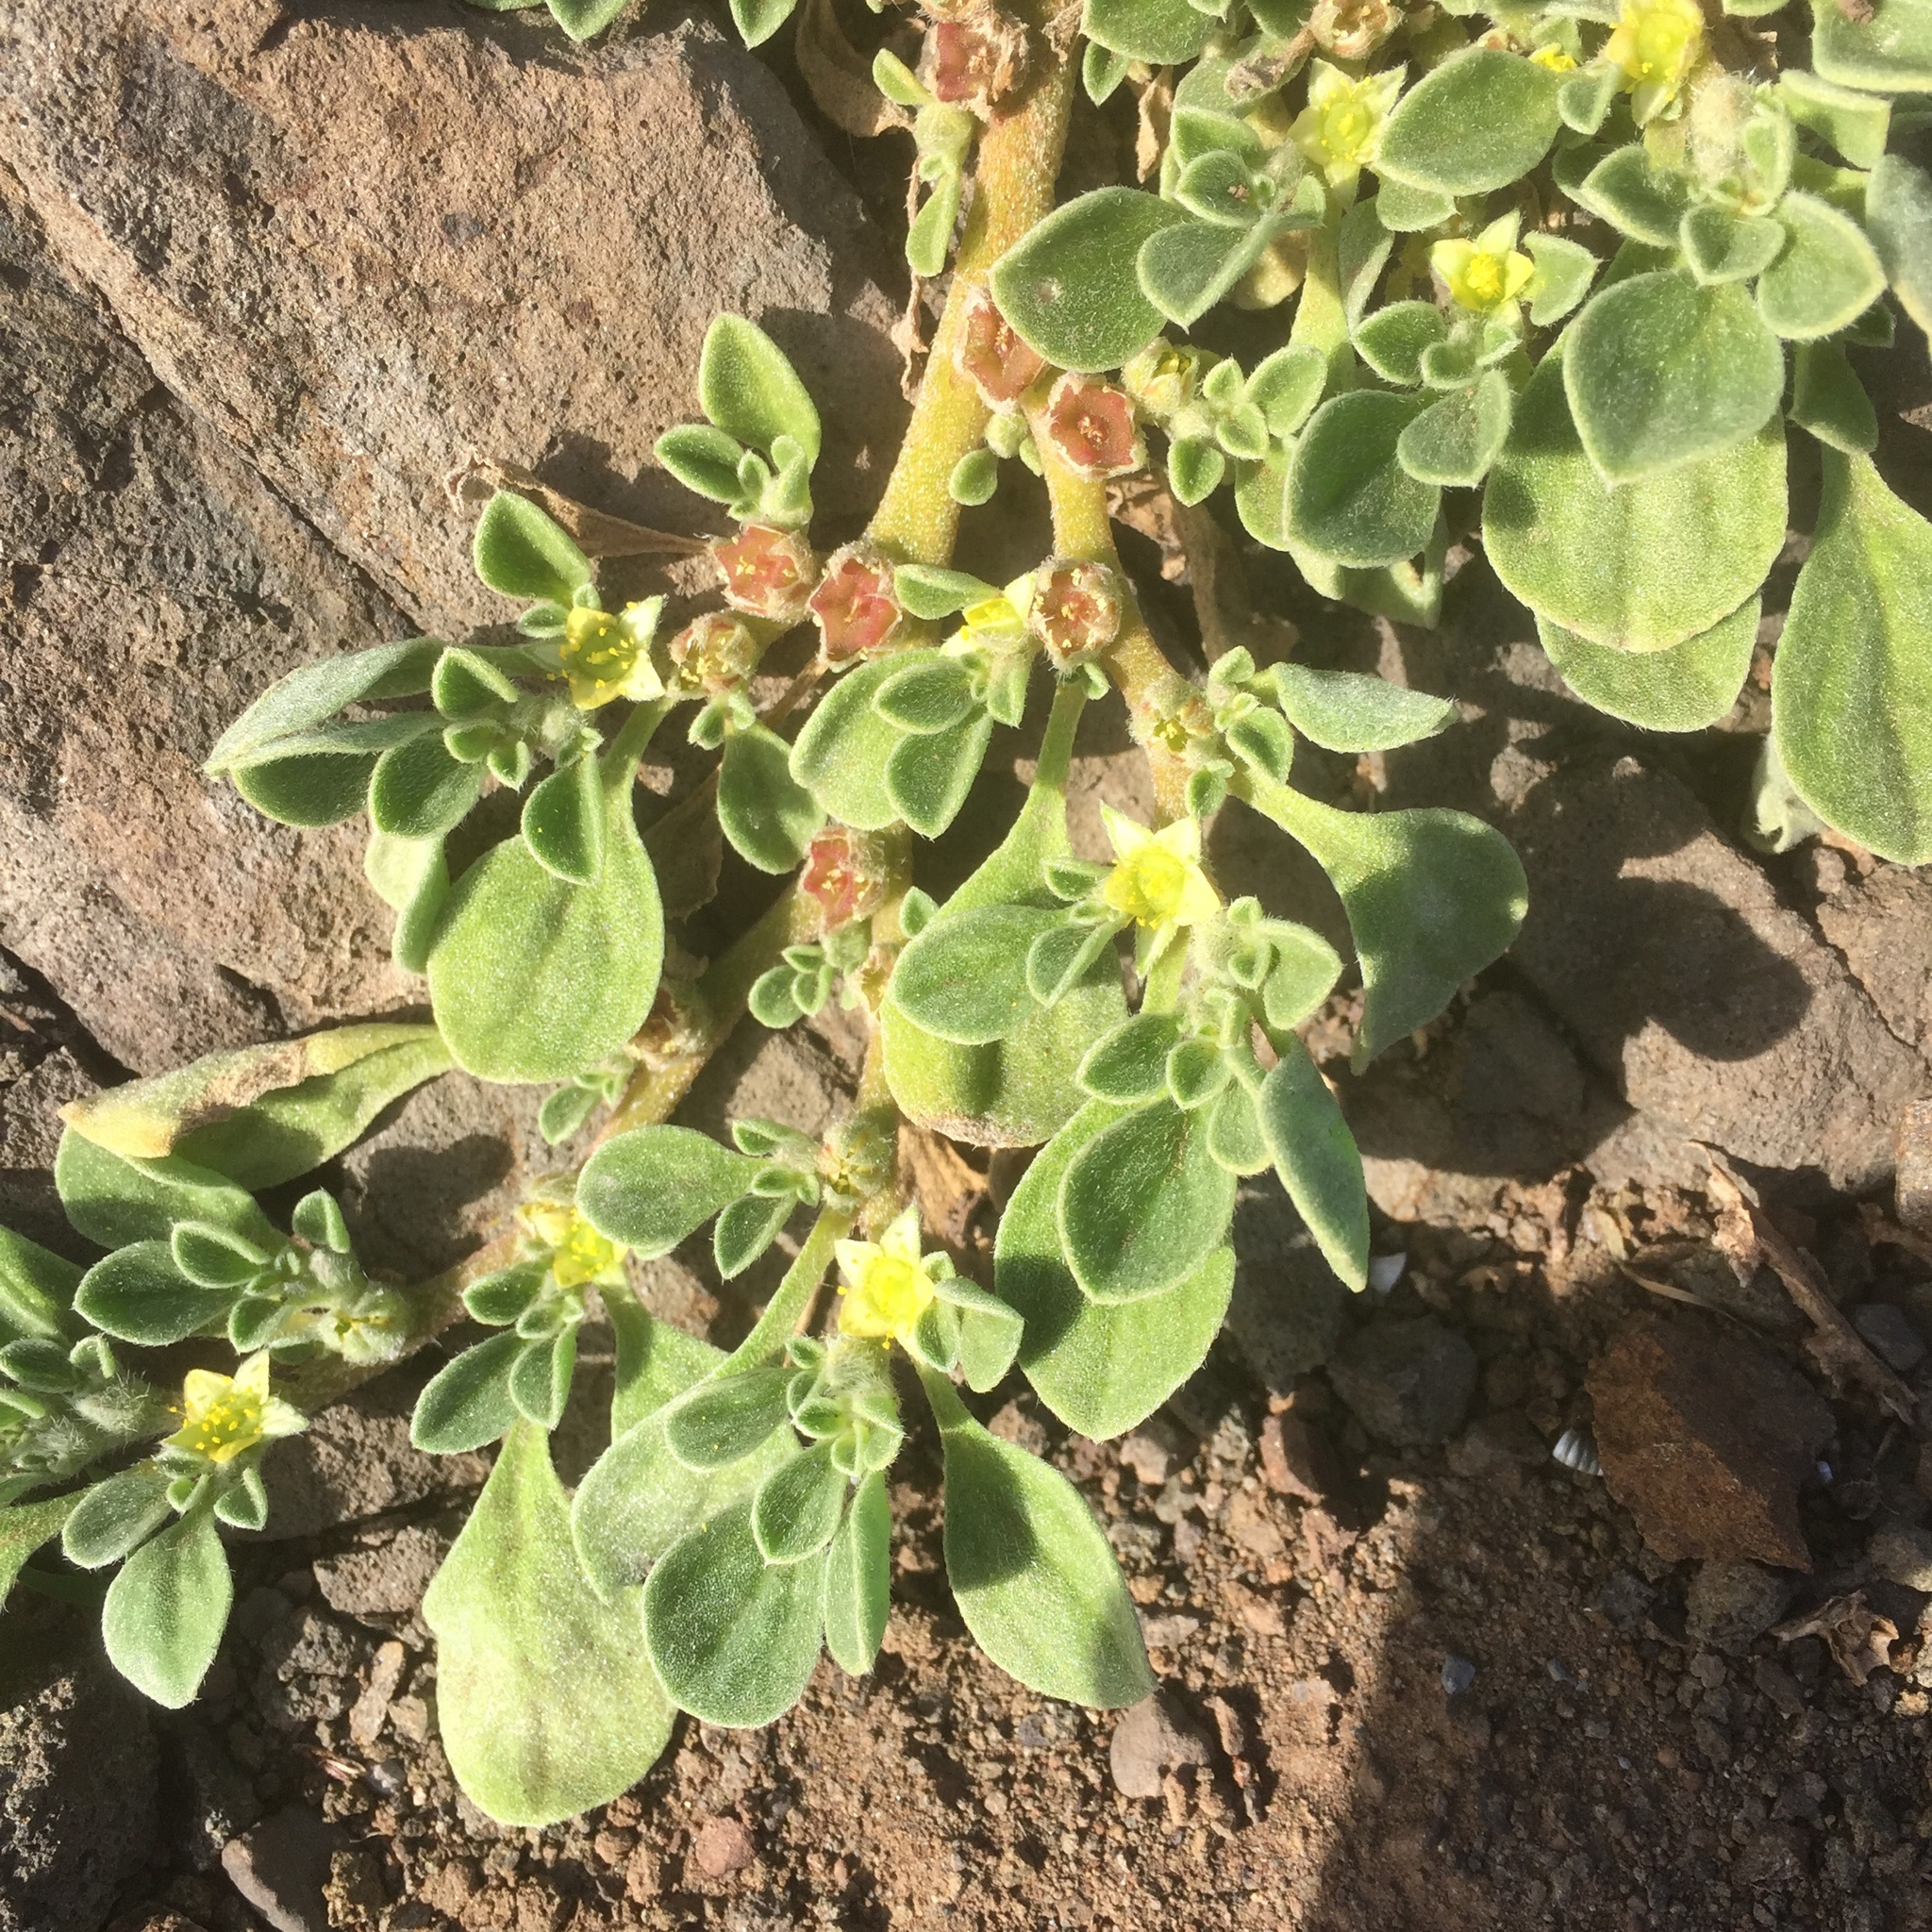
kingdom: Plantae
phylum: Tracheophyta
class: Magnoliopsida
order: Caryophyllales
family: Aizoaceae
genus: Aizoon
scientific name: Aizoon canariense
